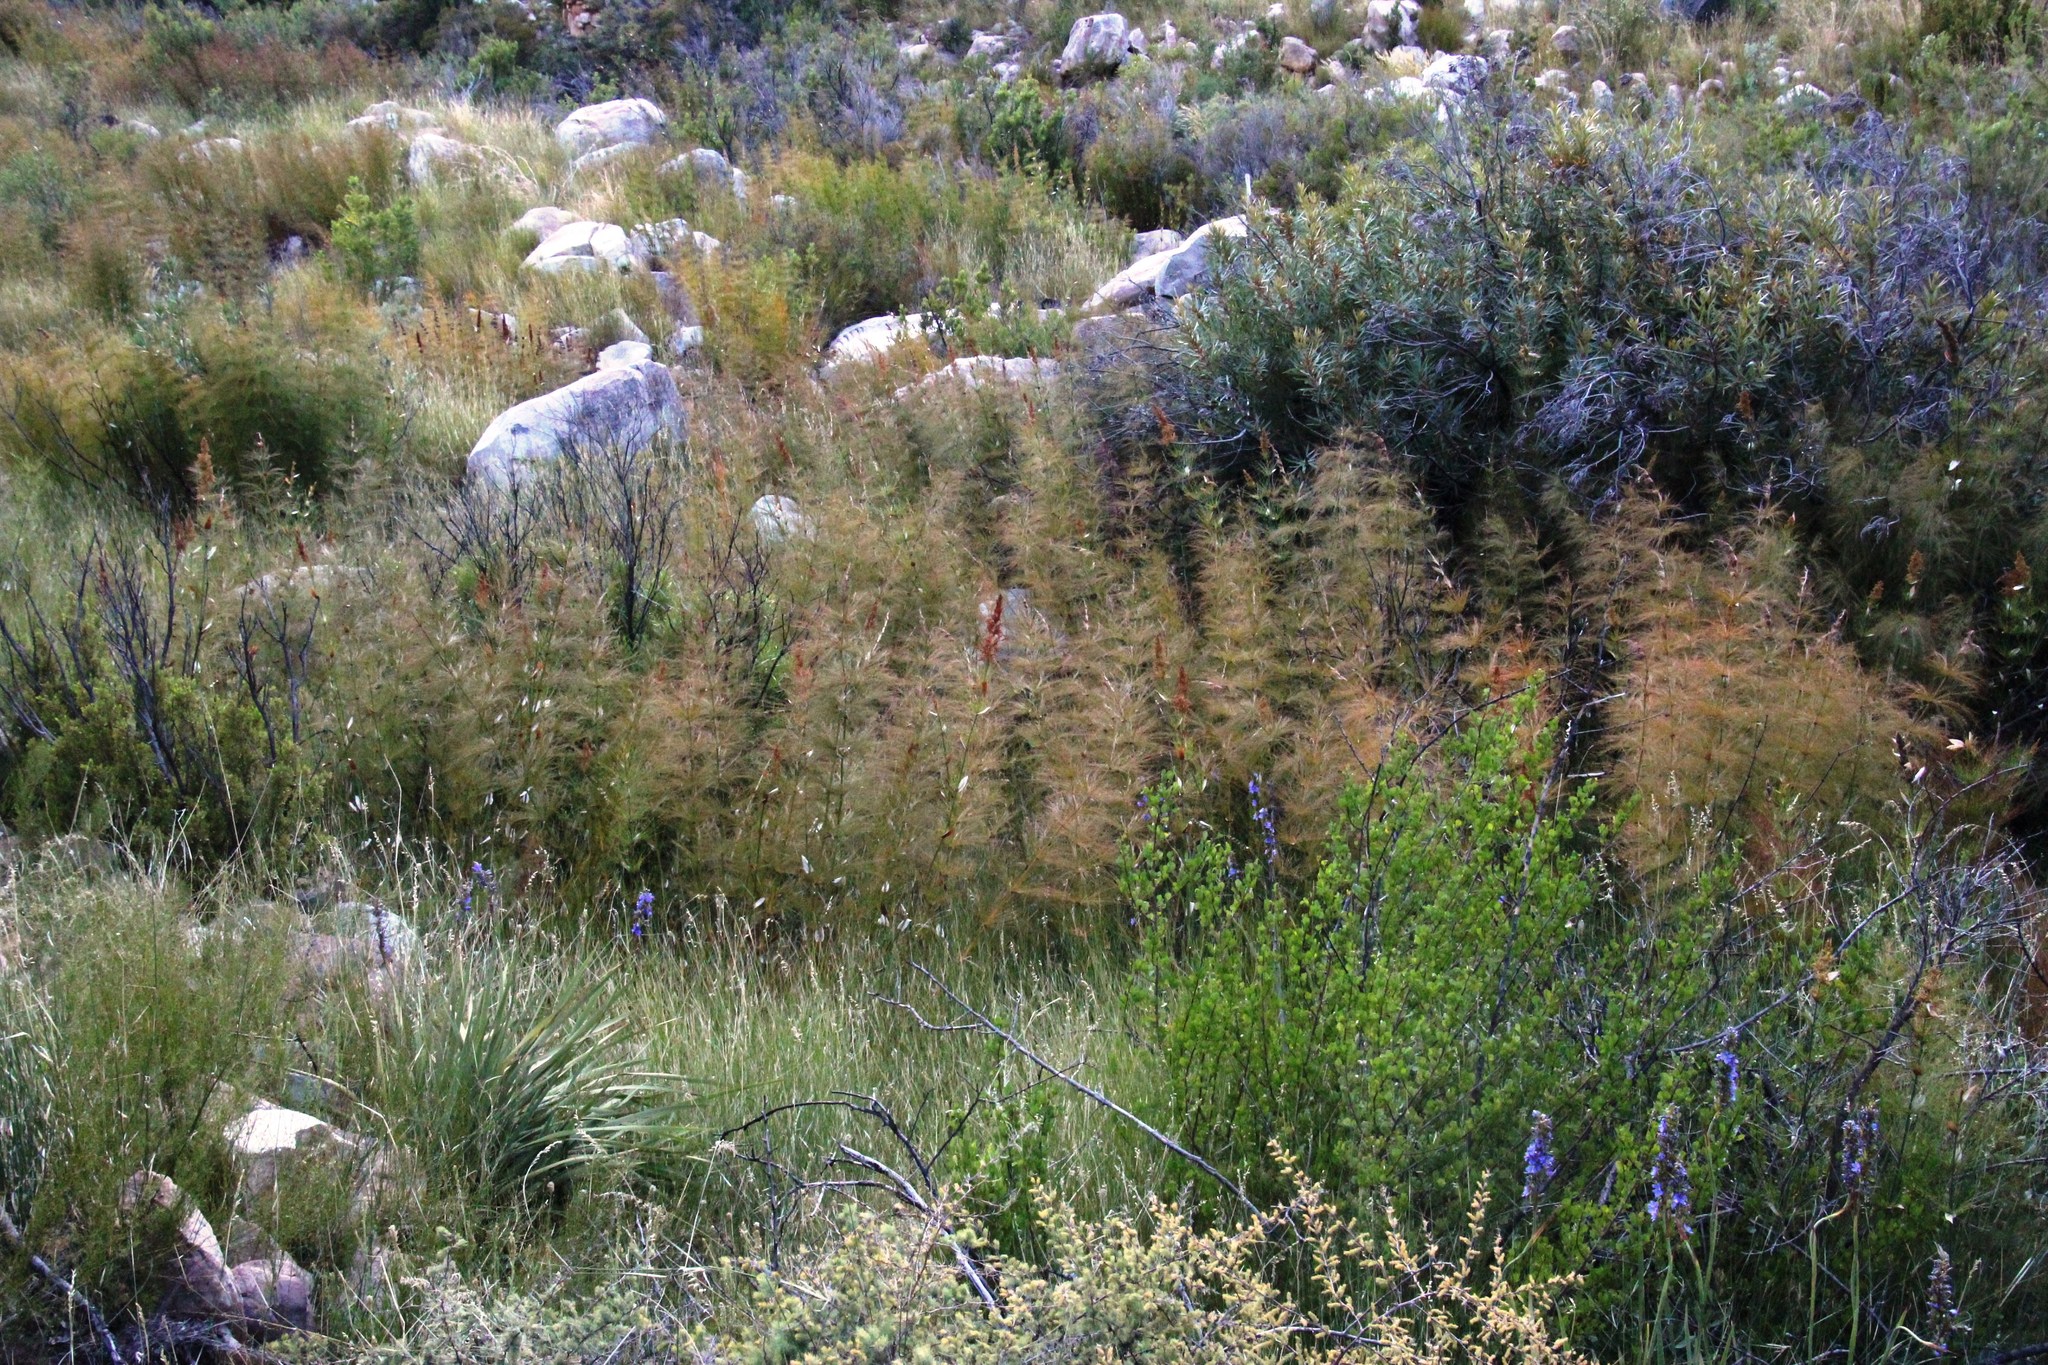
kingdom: Plantae
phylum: Tracheophyta
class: Liliopsida
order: Poales
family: Restionaceae
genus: Elegia
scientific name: Elegia capensis
